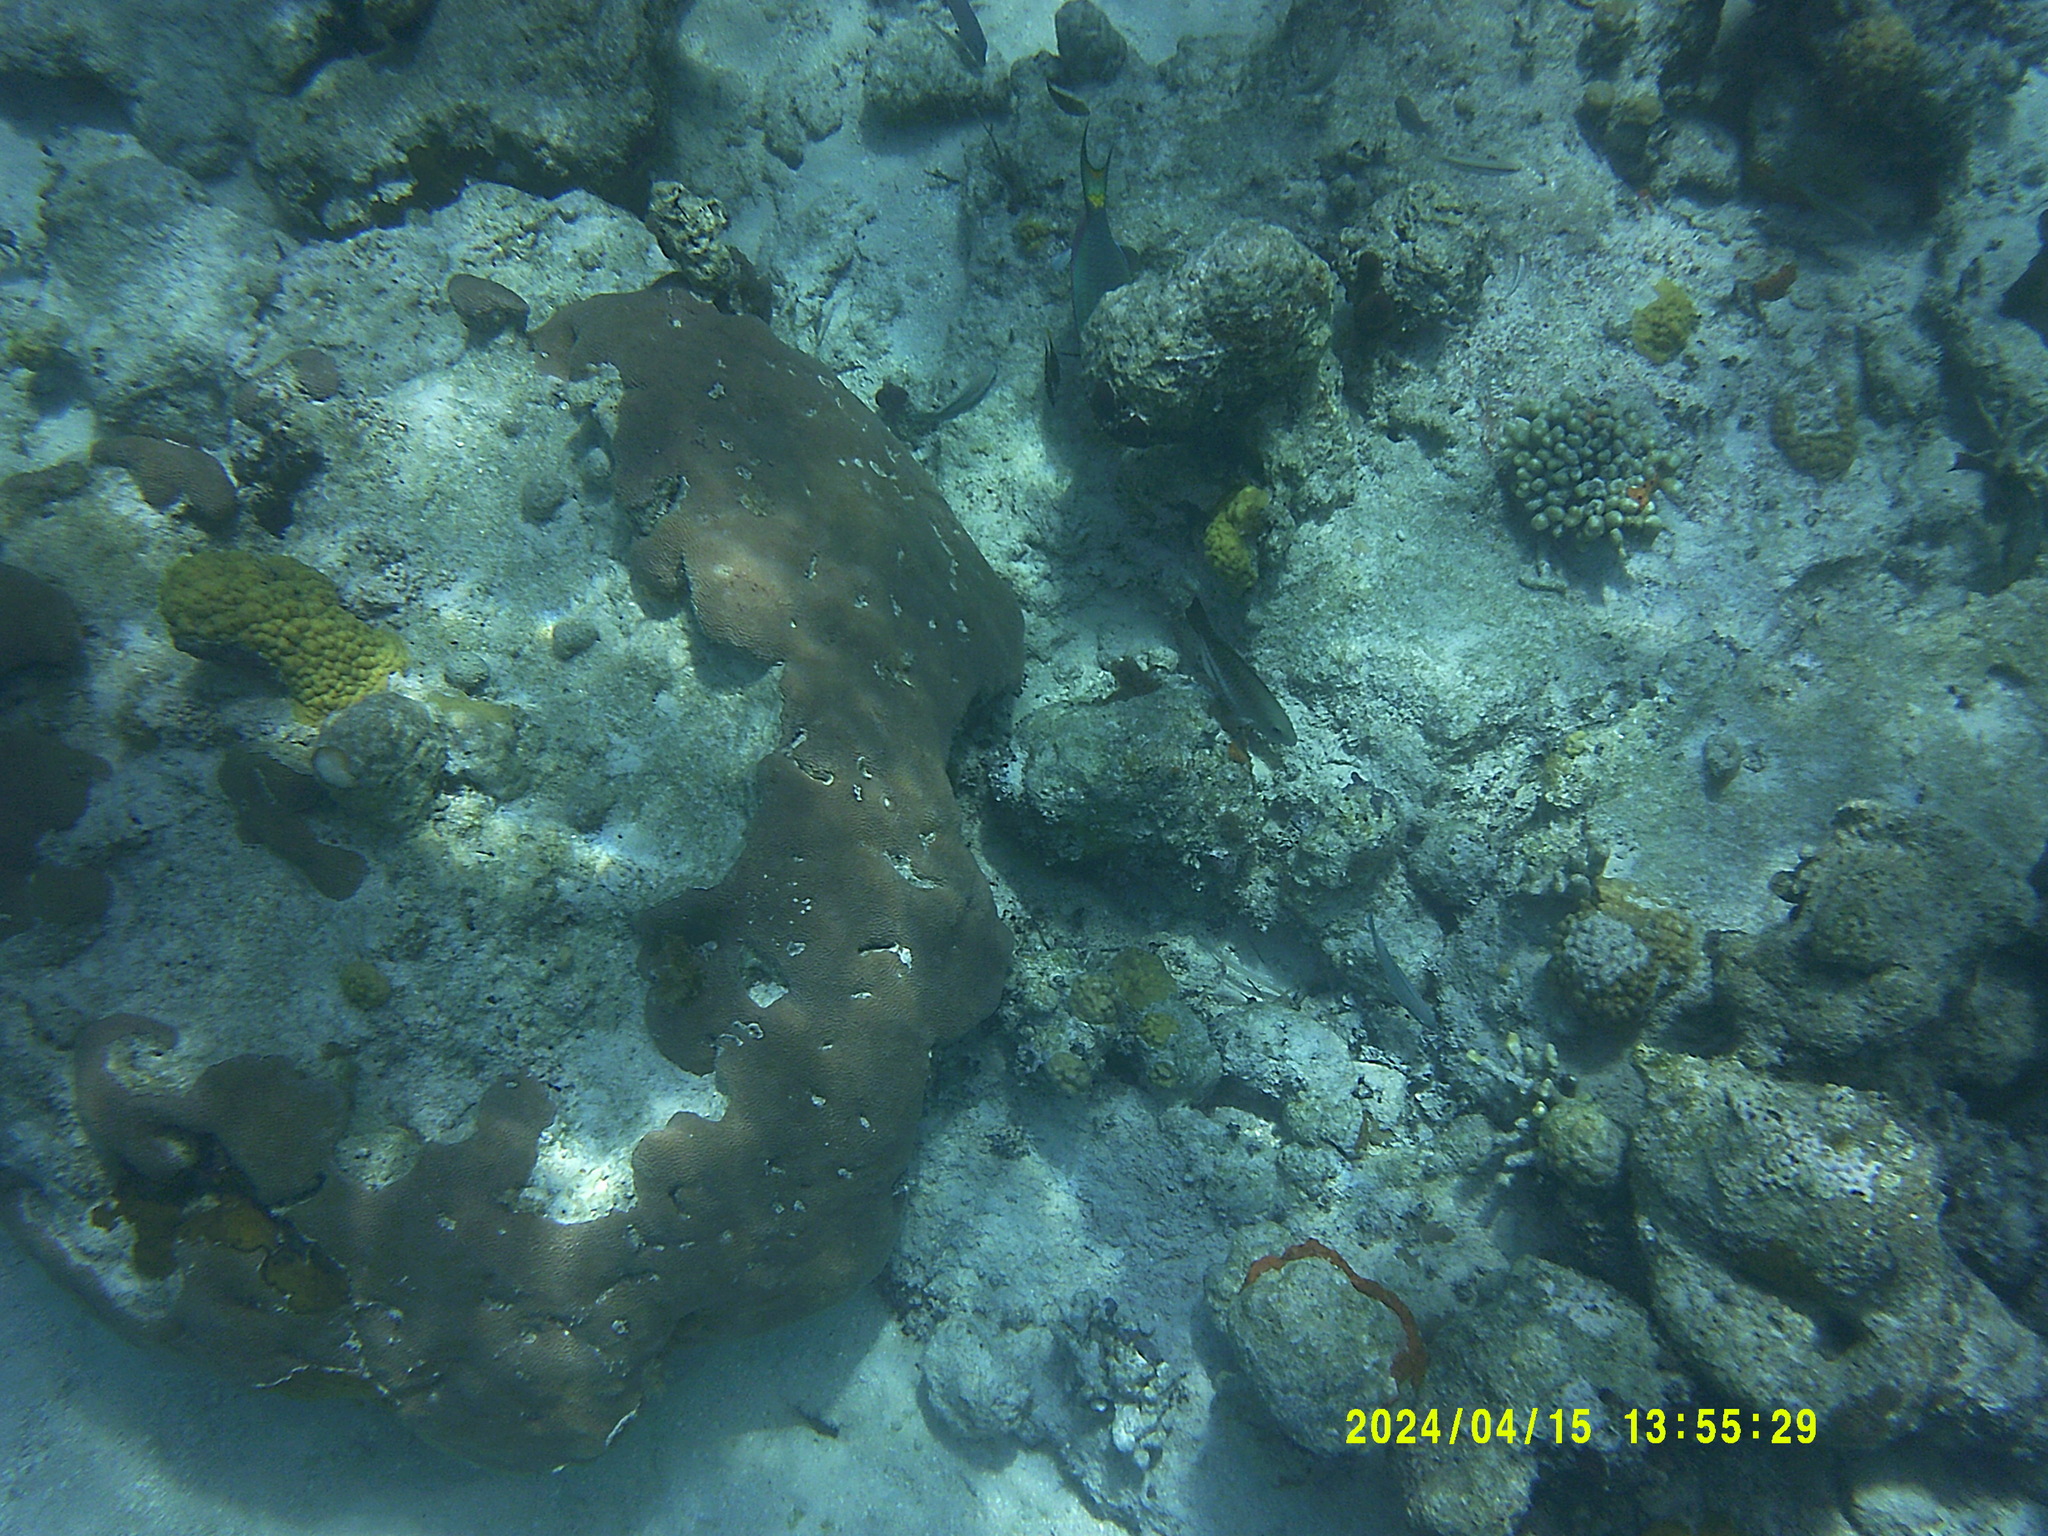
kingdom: Animalia
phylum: Chordata
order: Perciformes
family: Scaridae
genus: Sparisoma
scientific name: Sparisoma viride
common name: Stoplight parrotfish
